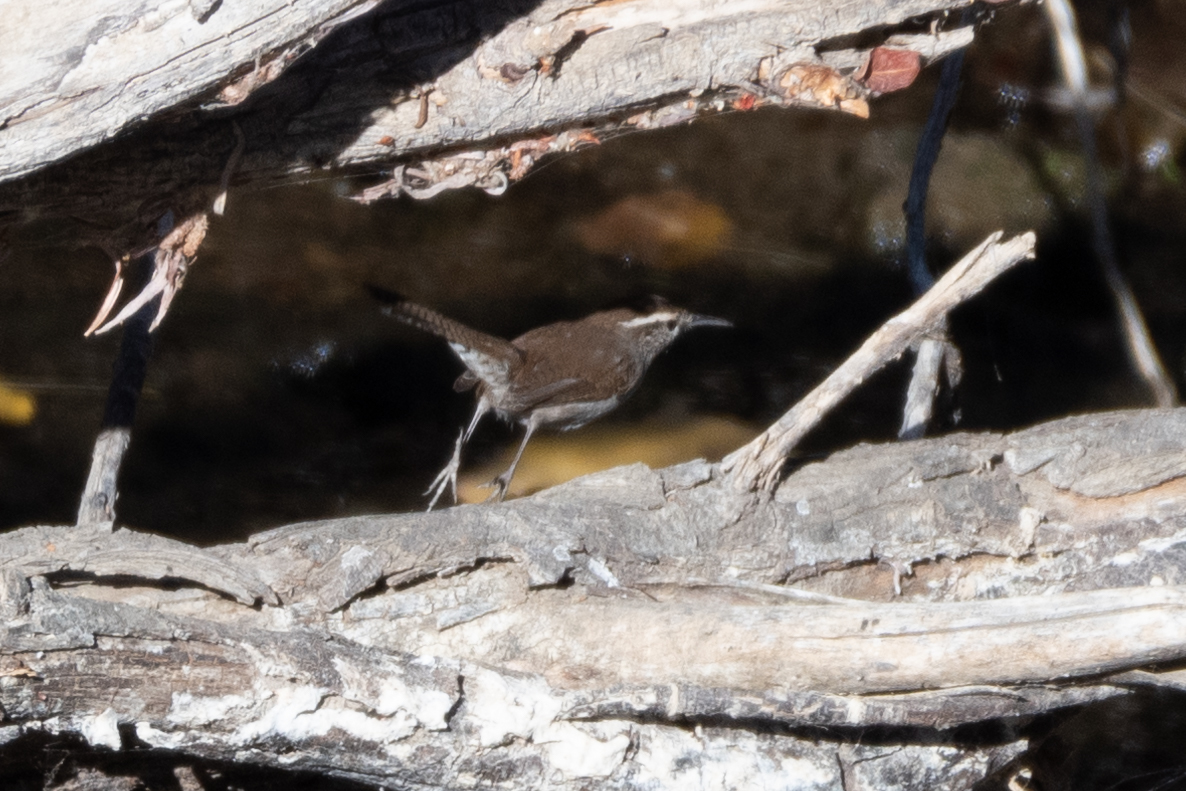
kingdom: Animalia
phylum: Chordata
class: Aves
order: Passeriformes
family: Troglodytidae
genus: Thryomanes
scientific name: Thryomanes bewickii
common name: Bewick's wren
